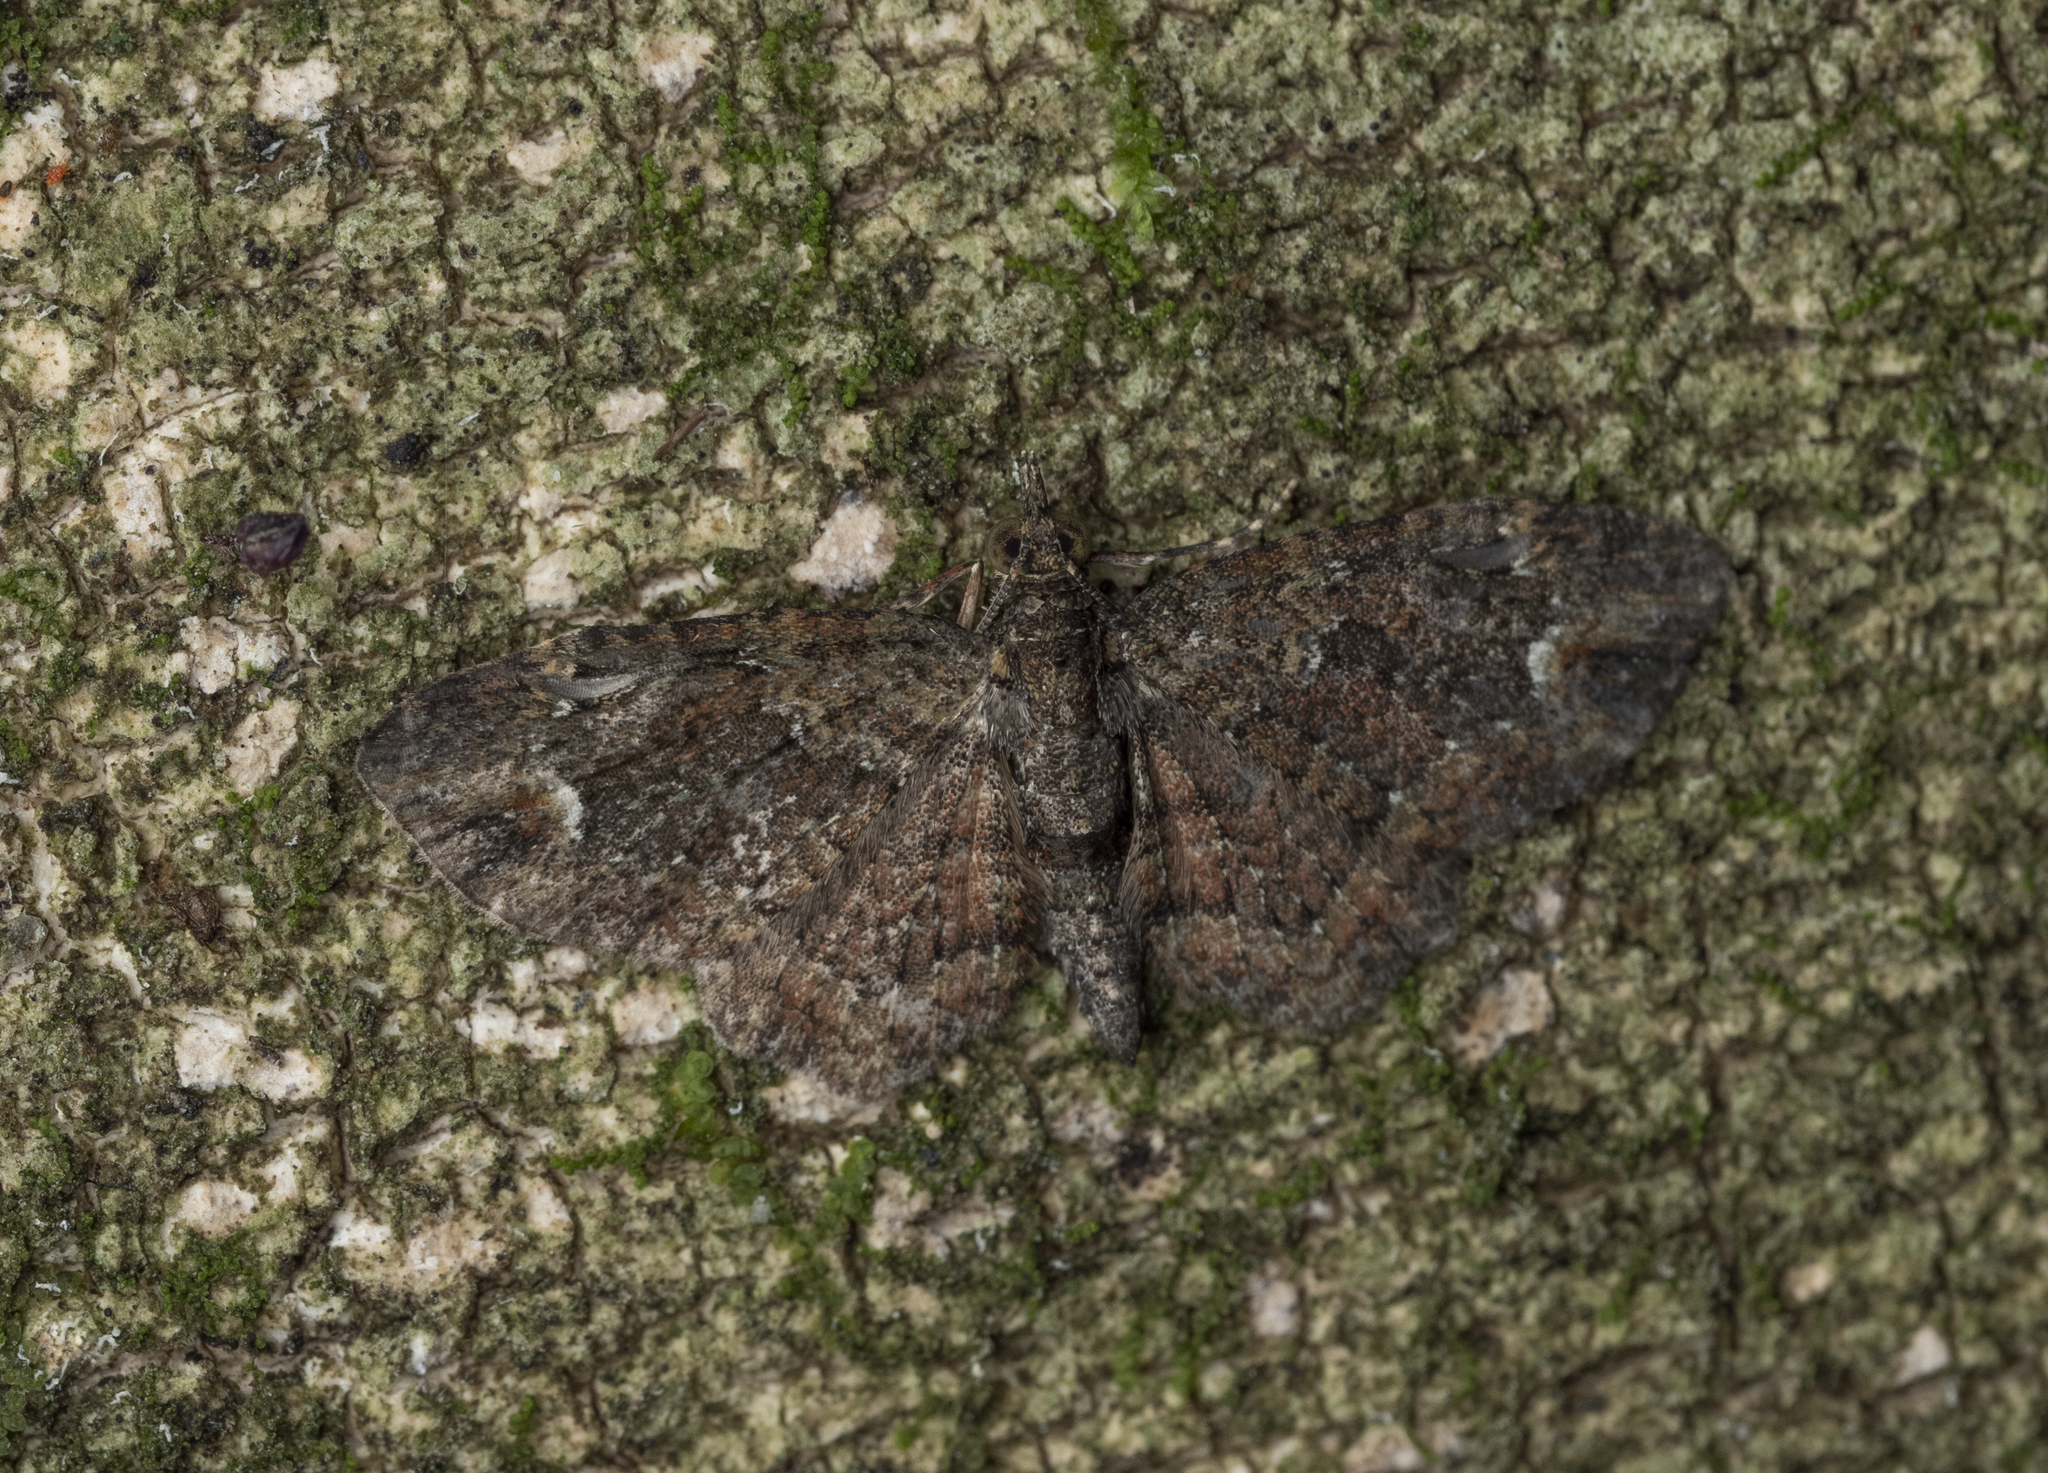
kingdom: Animalia
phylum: Arthropoda
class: Insecta
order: Lepidoptera
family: Geometridae
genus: Pasiphilodes
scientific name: Pasiphilodes testulata
